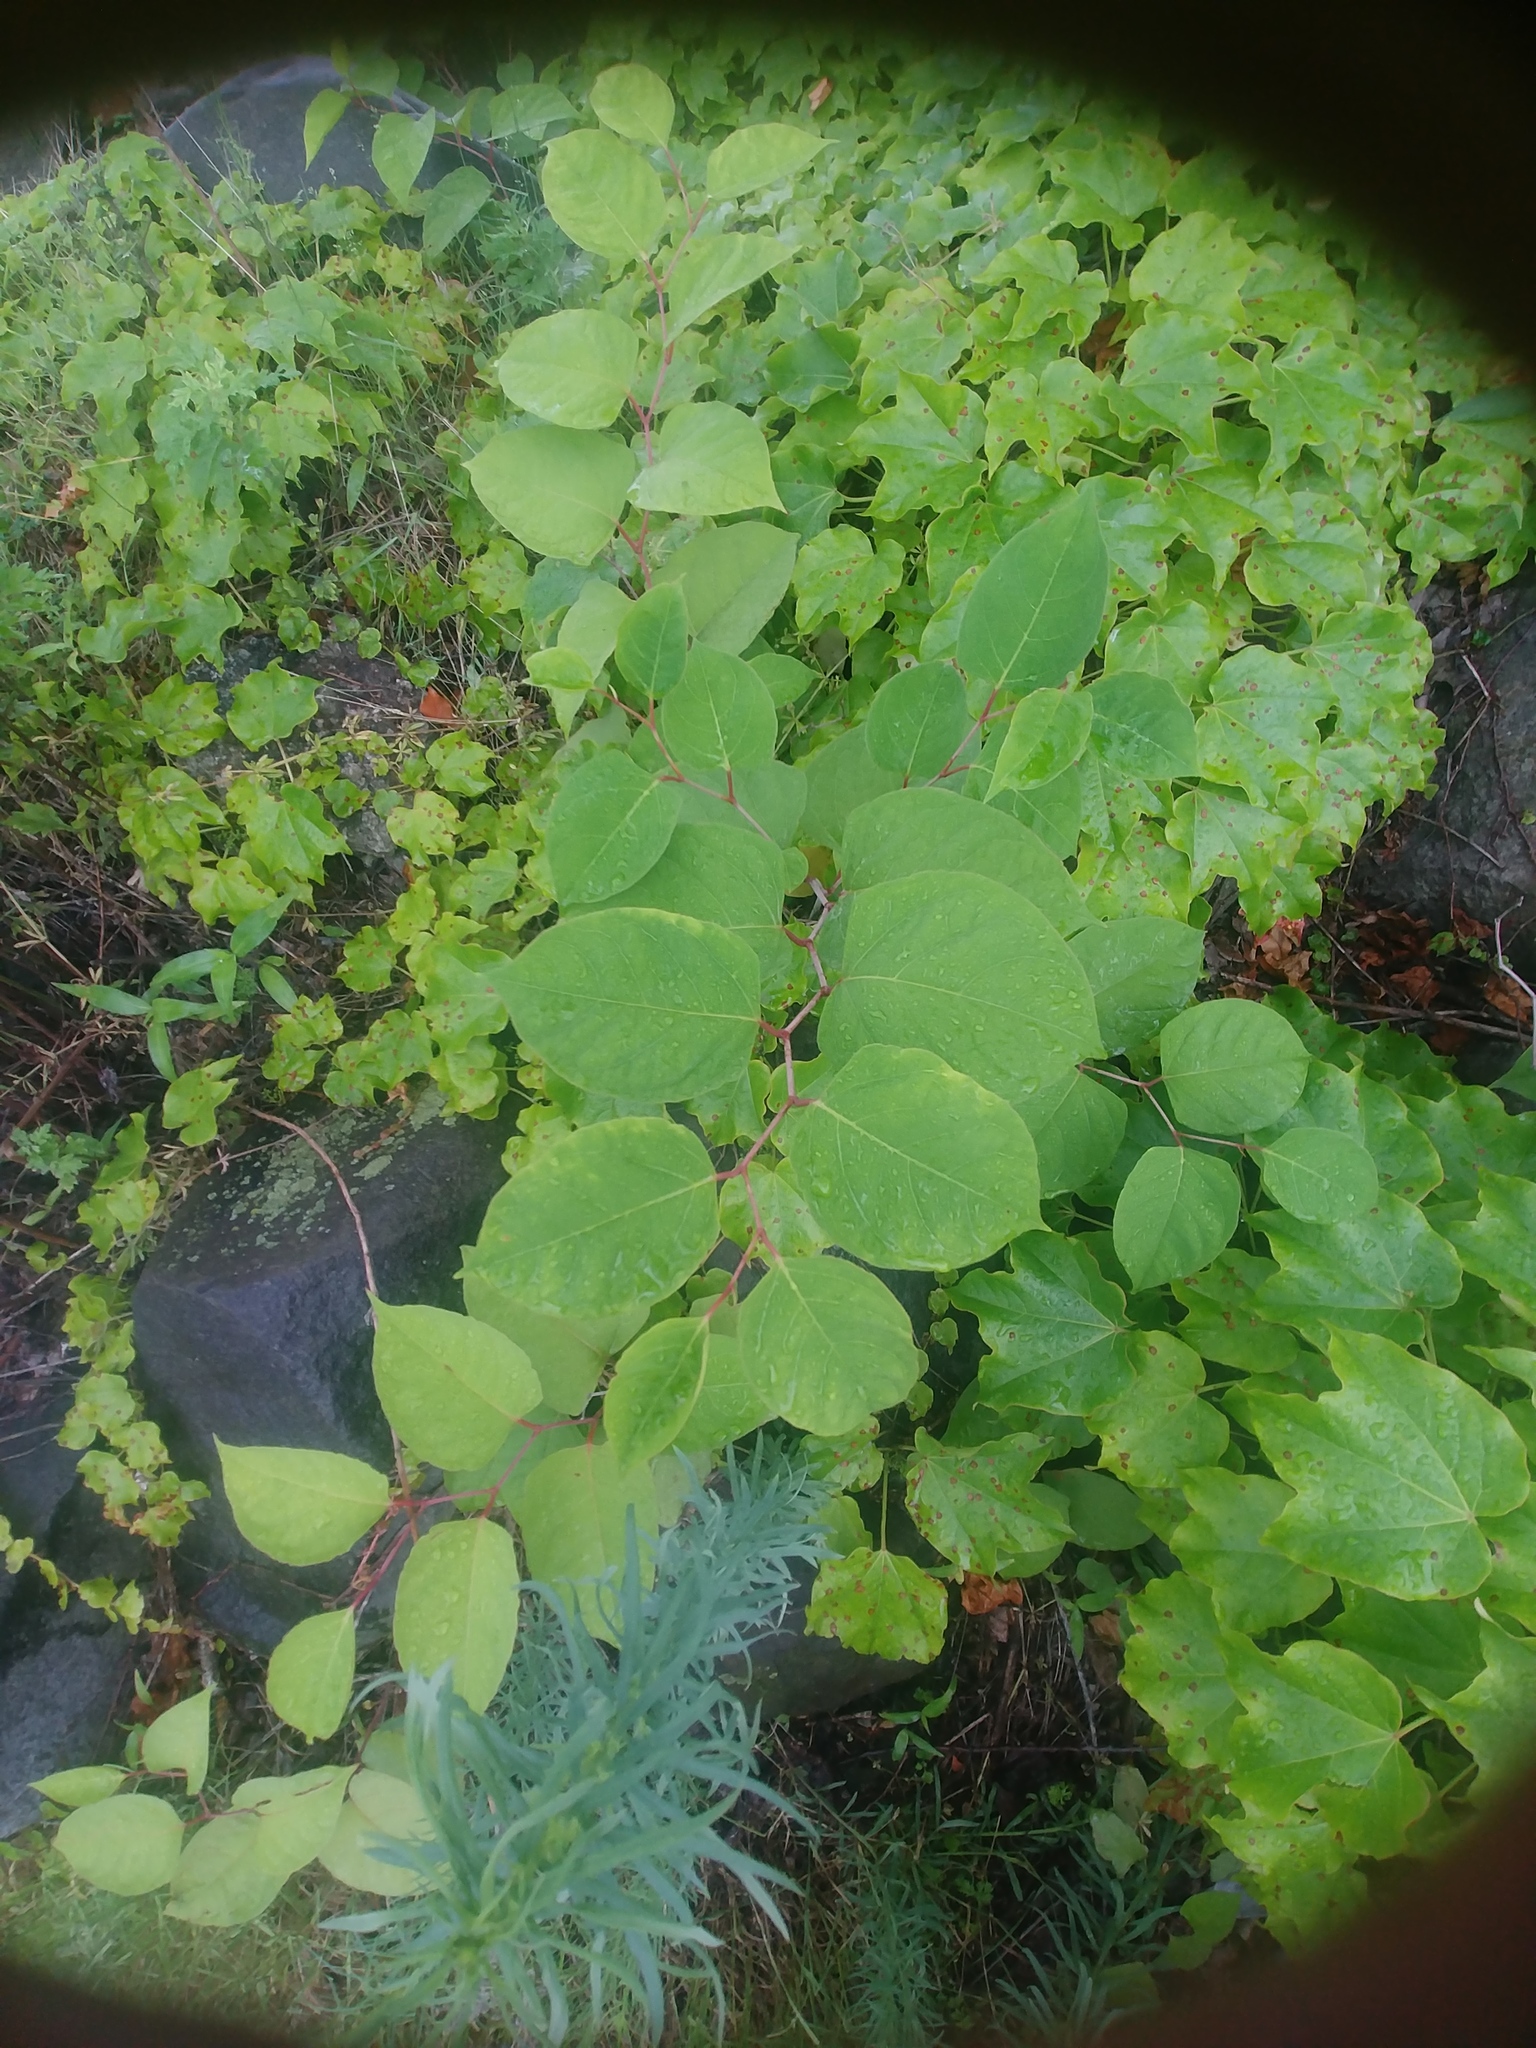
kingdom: Plantae
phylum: Tracheophyta
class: Magnoliopsida
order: Caryophyllales
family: Polygonaceae
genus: Reynoutria
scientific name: Reynoutria japonica
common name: Japanese knotweed
